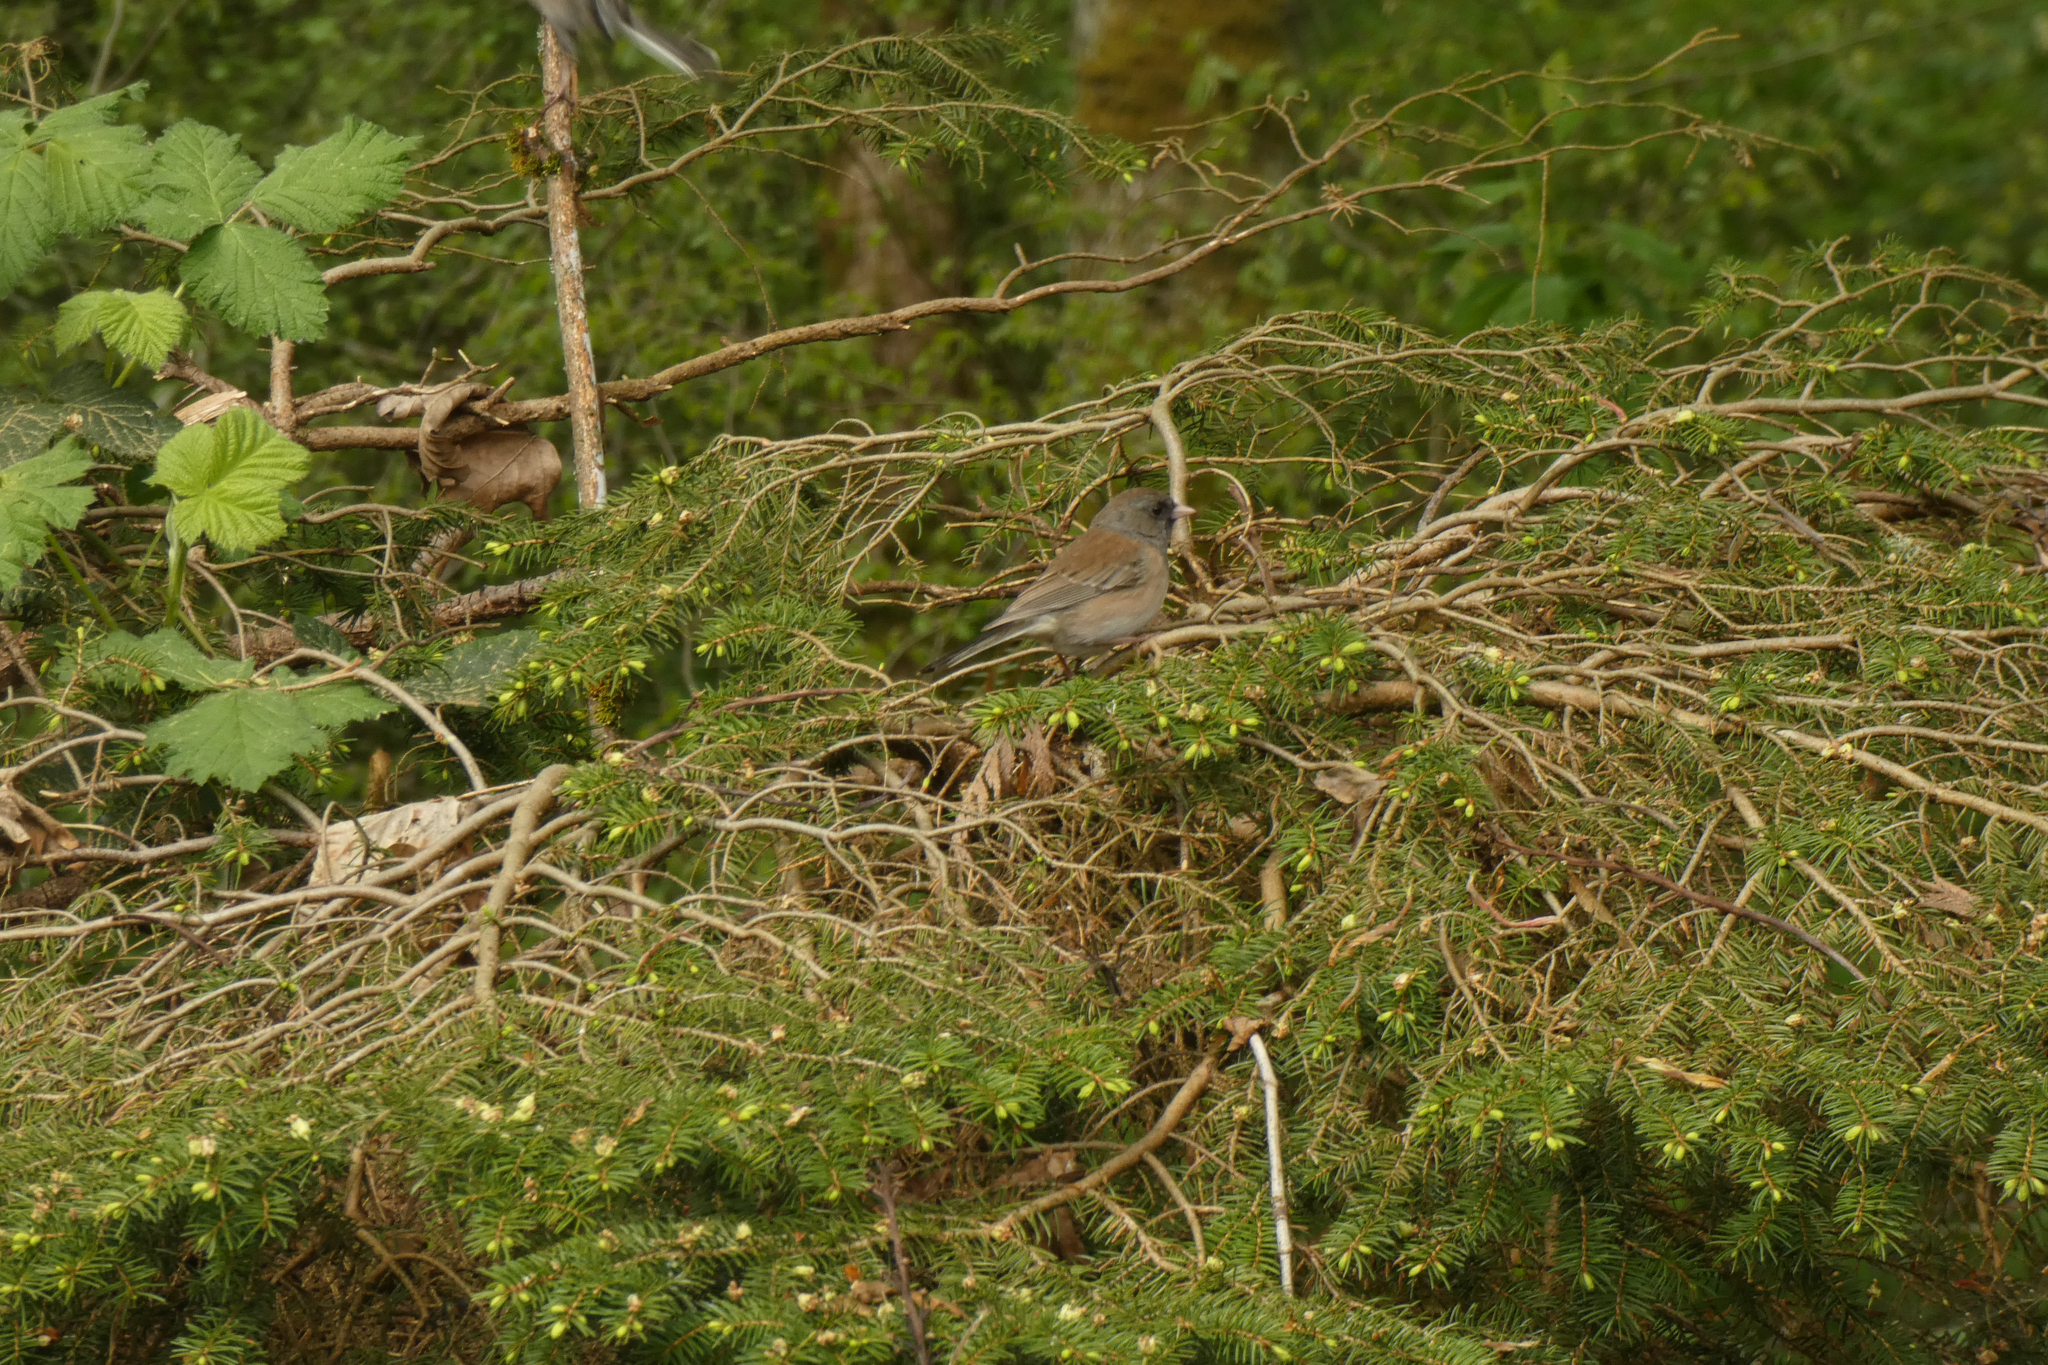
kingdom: Animalia
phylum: Chordata
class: Aves
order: Passeriformes
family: Passerellidae
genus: Junco
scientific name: Junco hyemalis
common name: Dark-eyed junco
